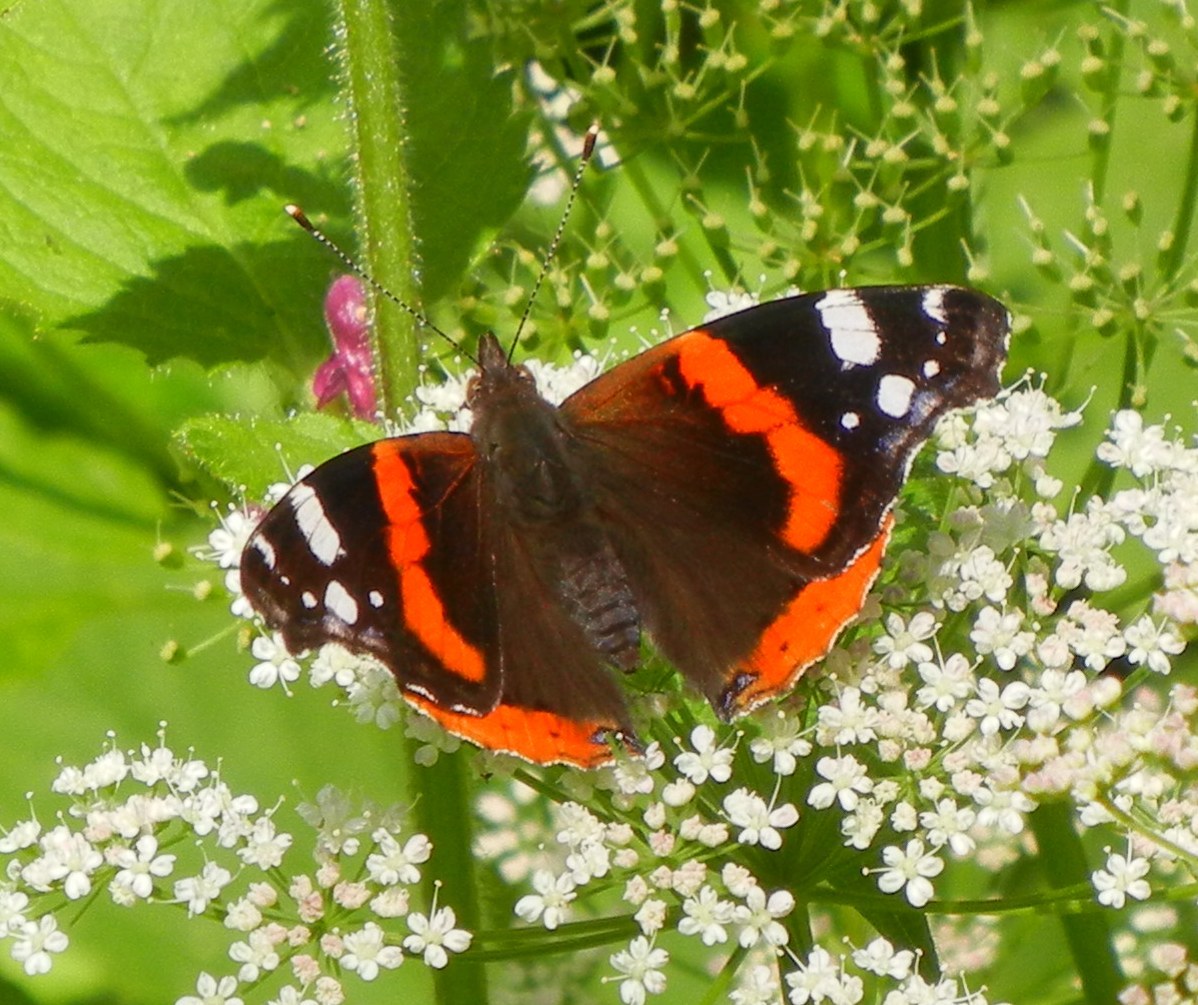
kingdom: Animalia
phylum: Arthropoda
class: Insecta
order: Lepidoptera
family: Nymphalidae
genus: Vanessa
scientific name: Vanessa atalanta
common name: Red admiral
